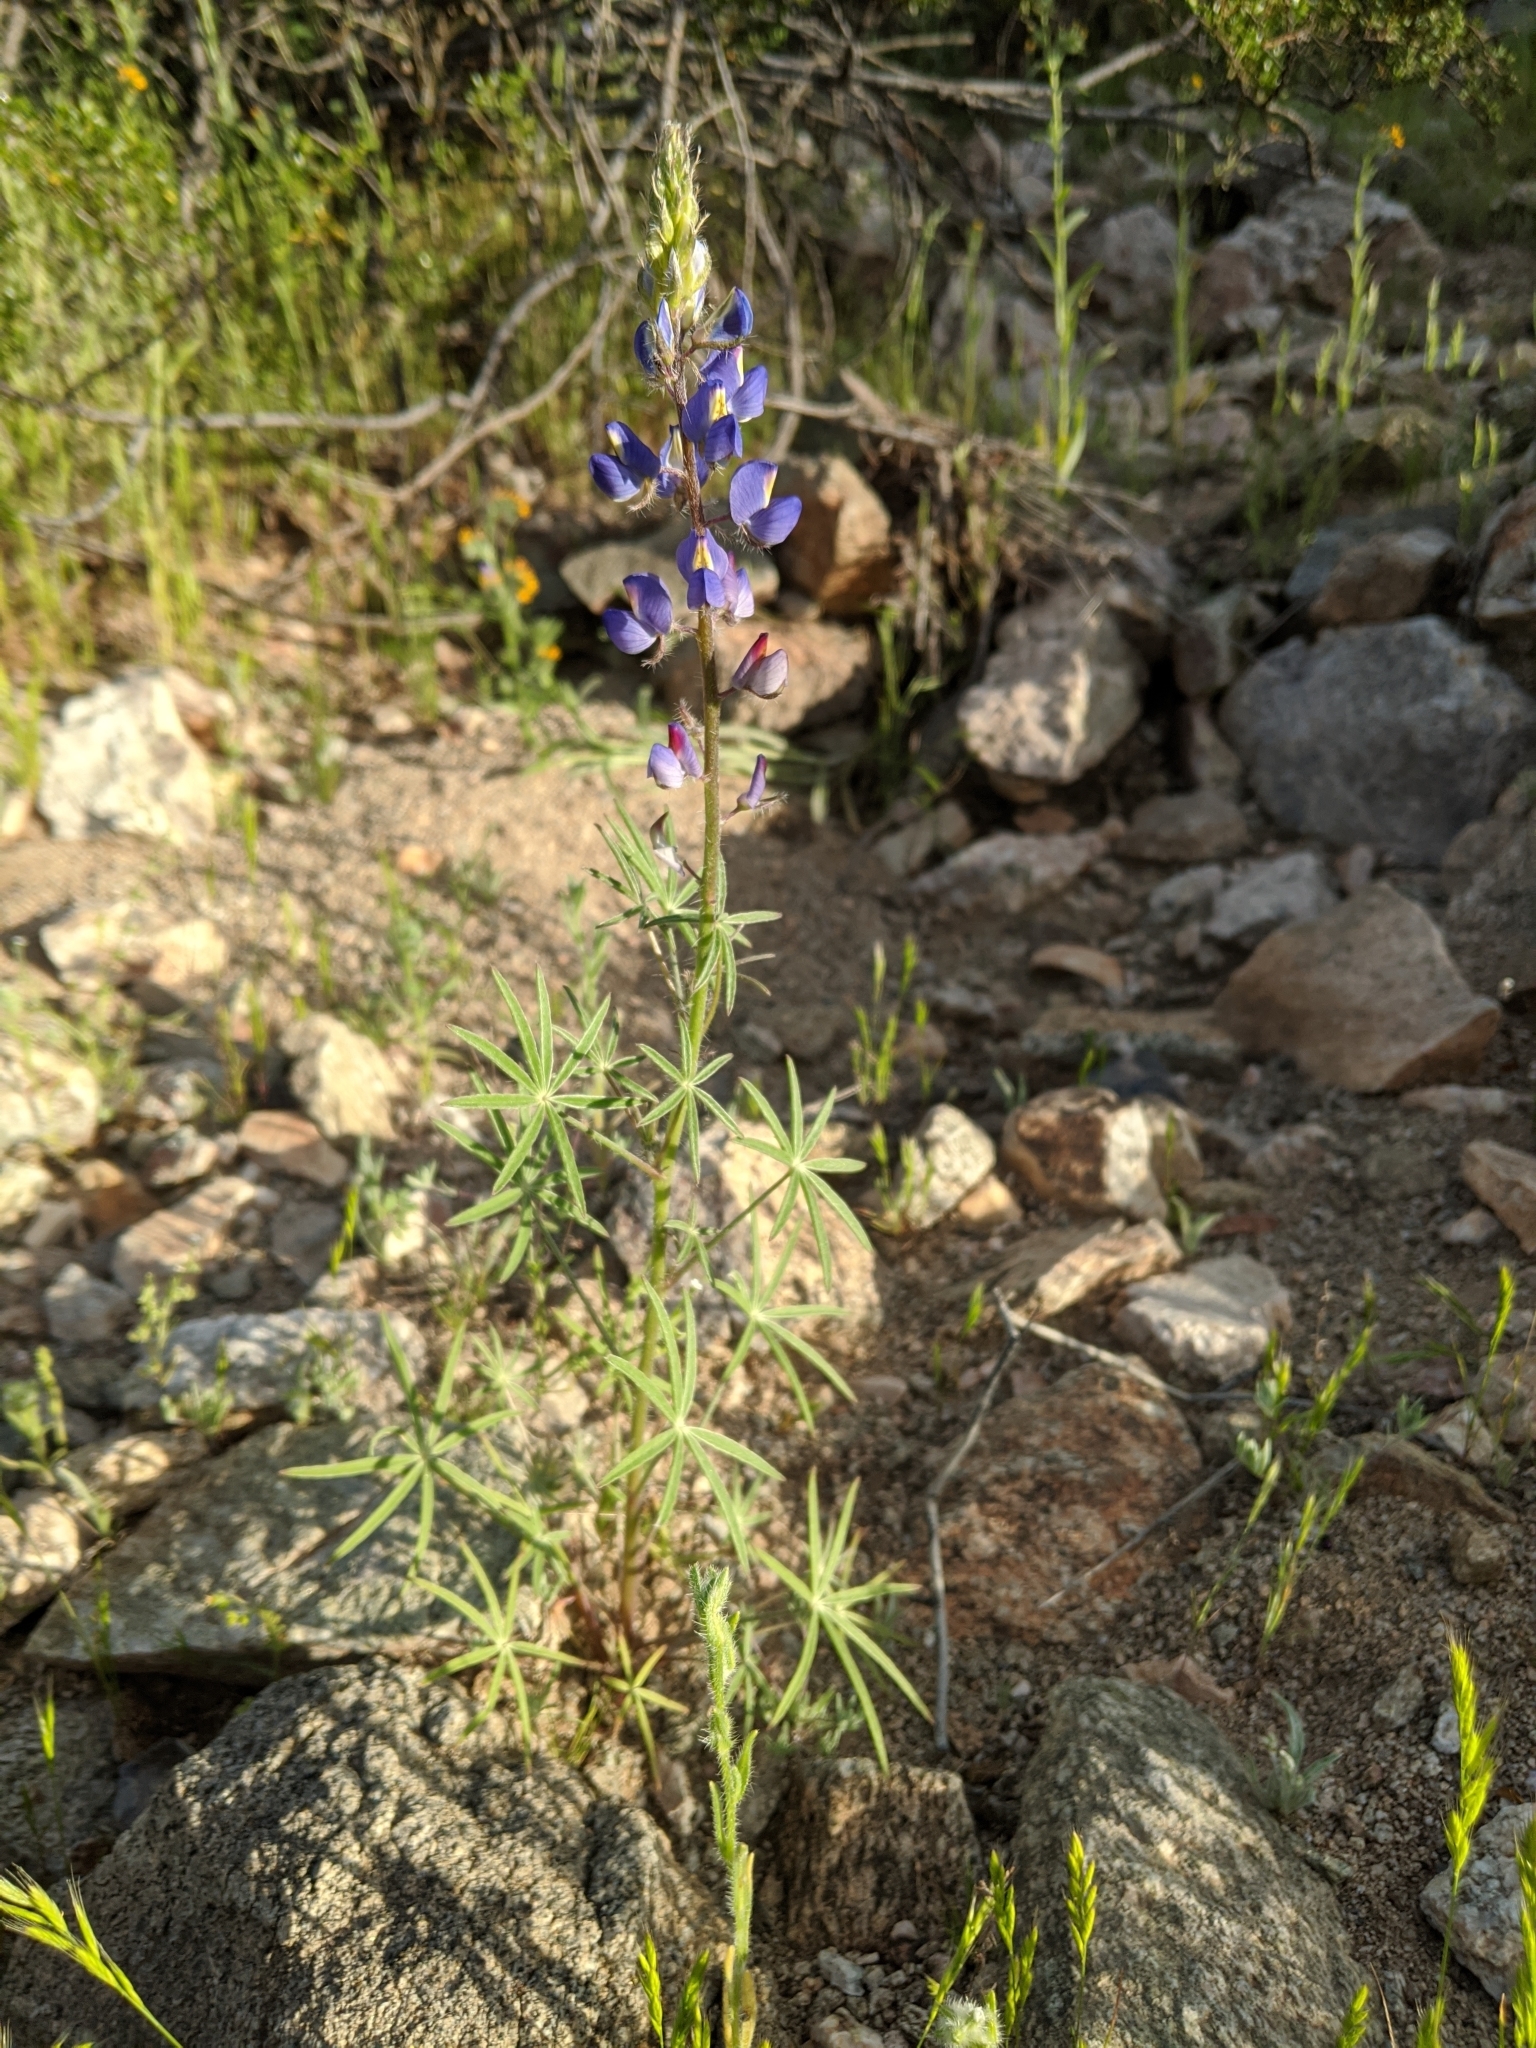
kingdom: Plantae
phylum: Tracheophyta
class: Magnoliopsida
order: Fabales
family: Fabaceae
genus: Lupinus
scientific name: Lupinus sparsiflorus
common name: Coulter's lupine
